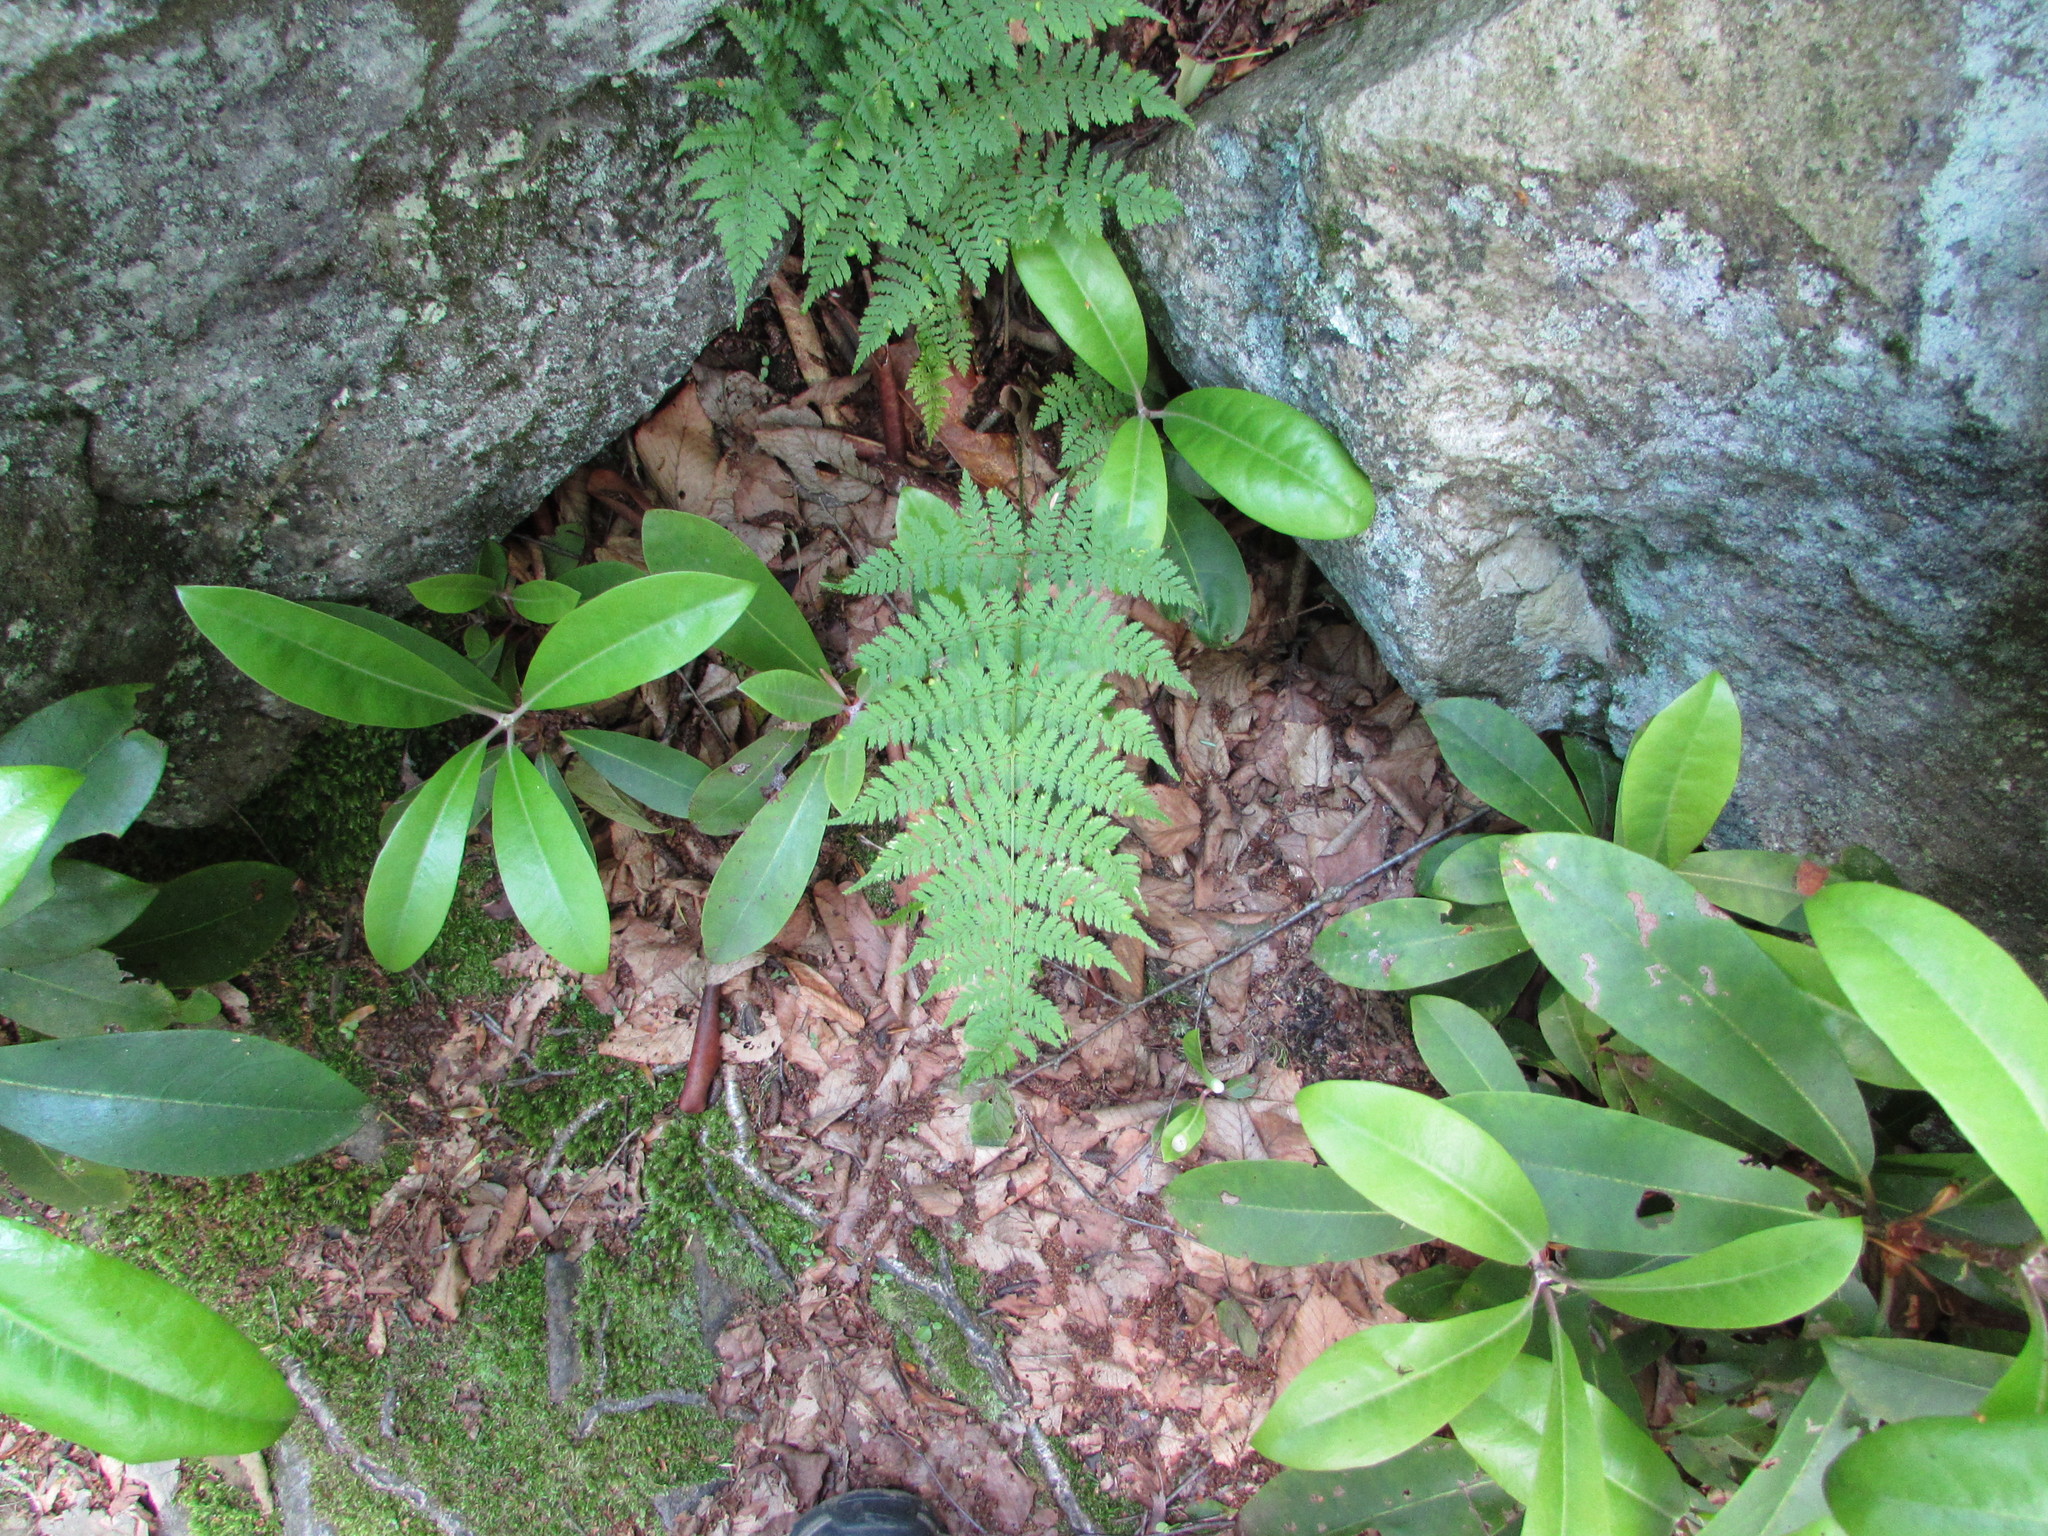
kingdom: Plantae
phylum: Tracheophyta
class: Polypodiopsida
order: Polypodiales
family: Dryopteridaceae
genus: Dryopteris
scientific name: Dryopteris intermedia
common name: Evergreen wood fern
